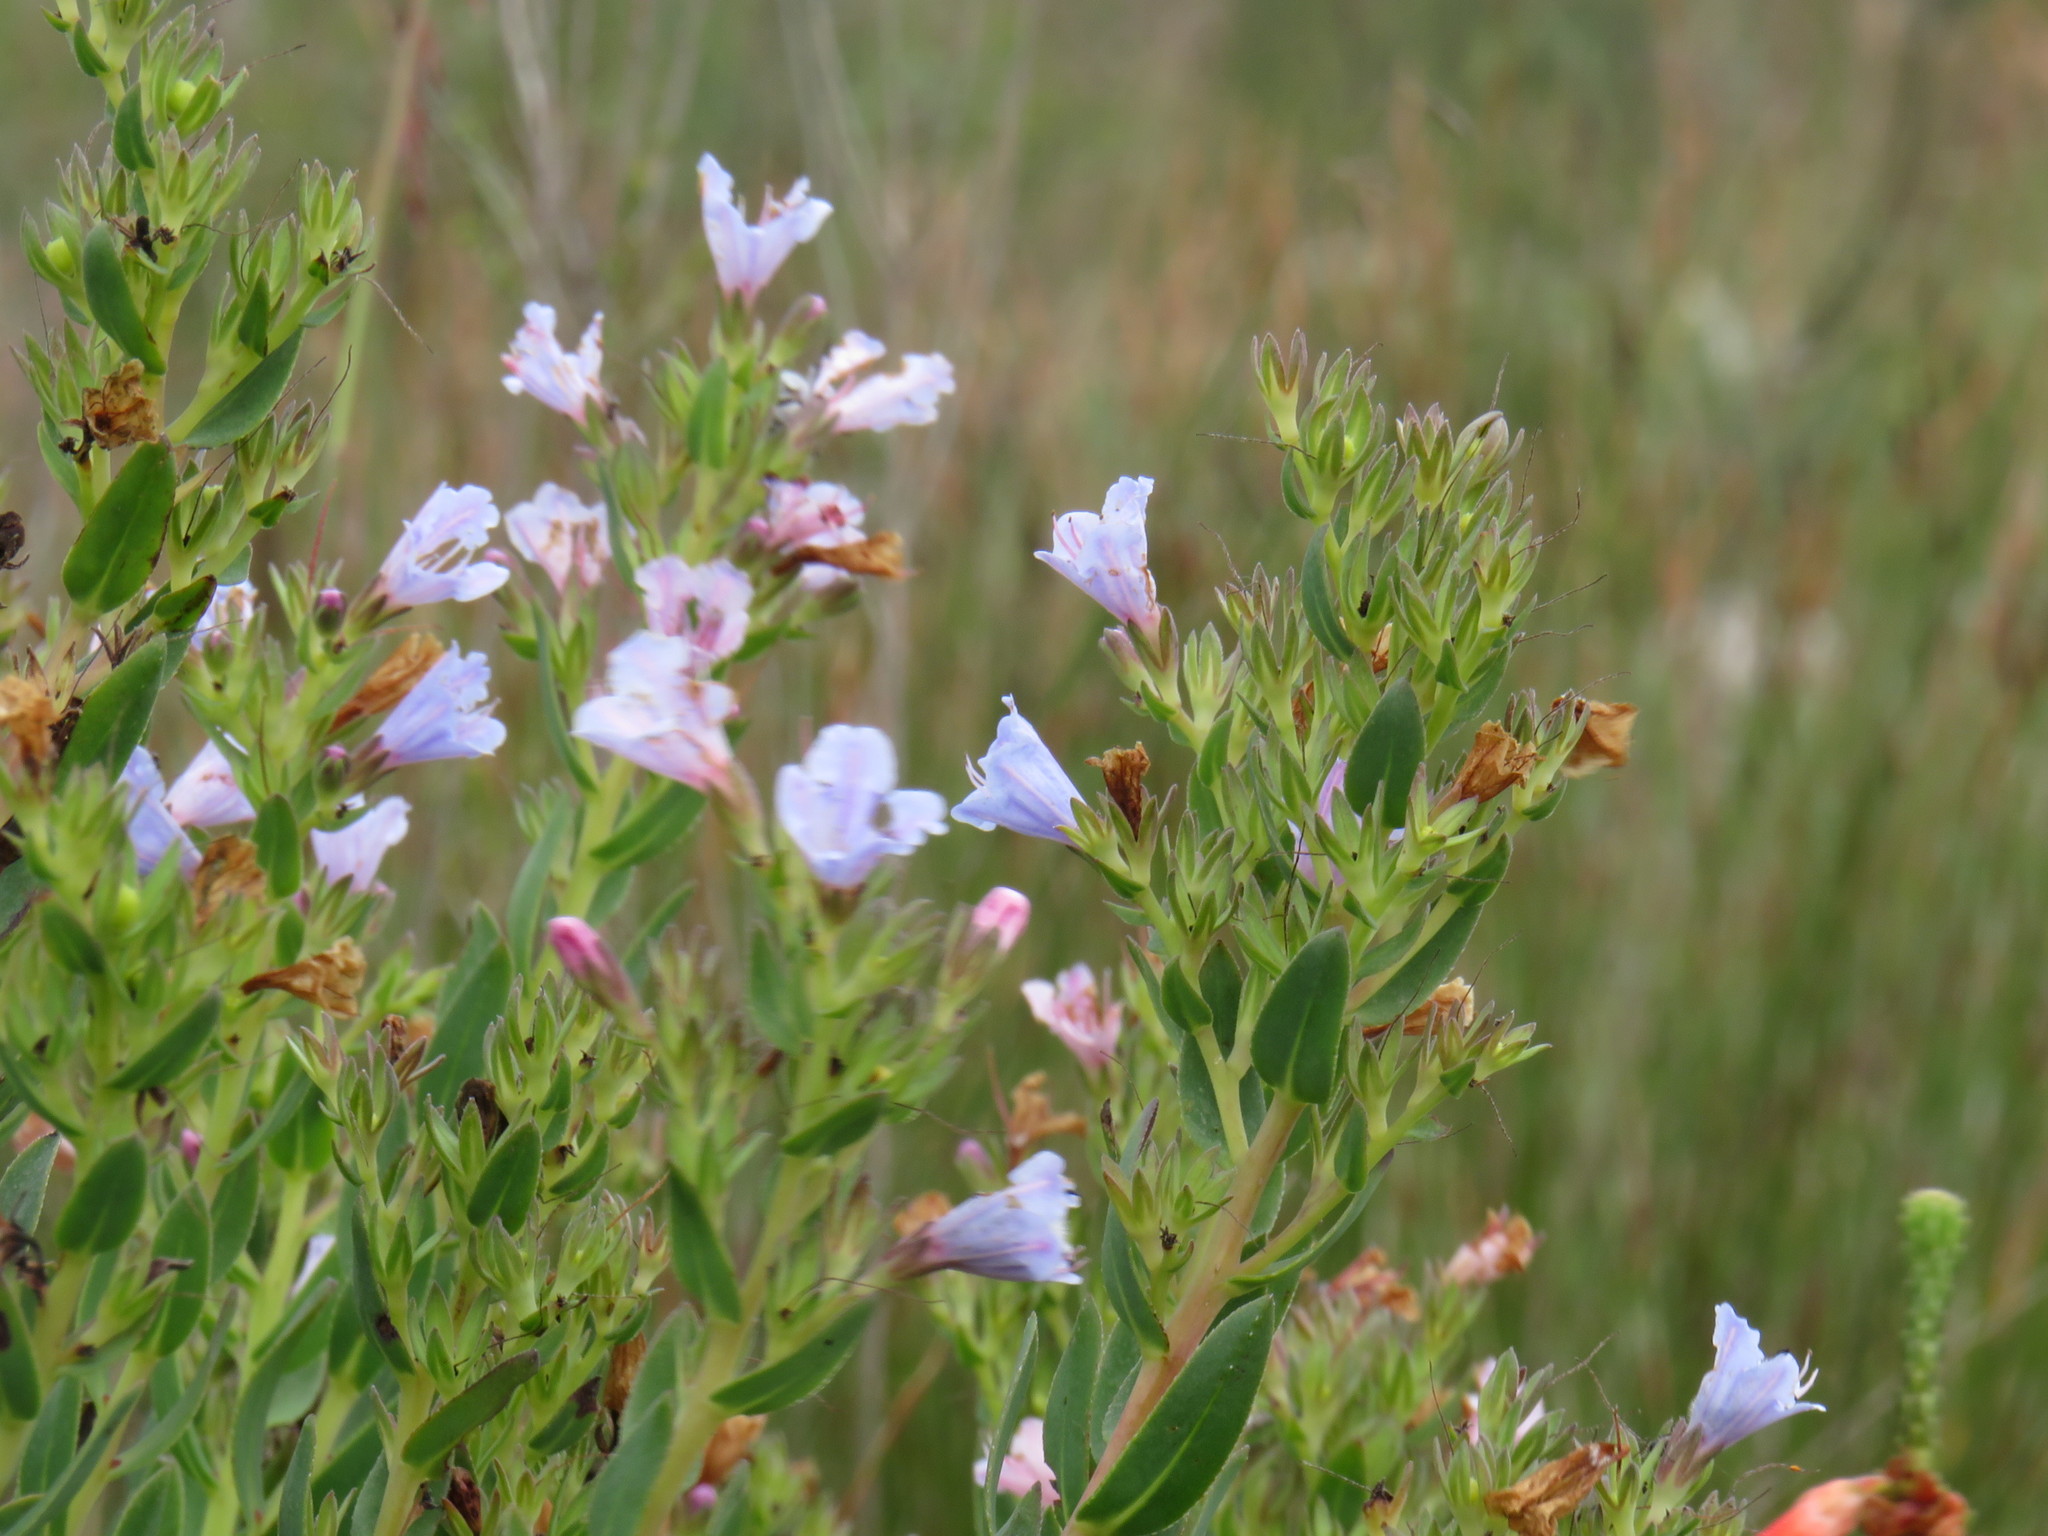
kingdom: Plantae
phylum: Tracheophyta
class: Magnoliopsida
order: Boraginales
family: Boraginaceae
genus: Lobostemon
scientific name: Lobostemon glaucophyllus
